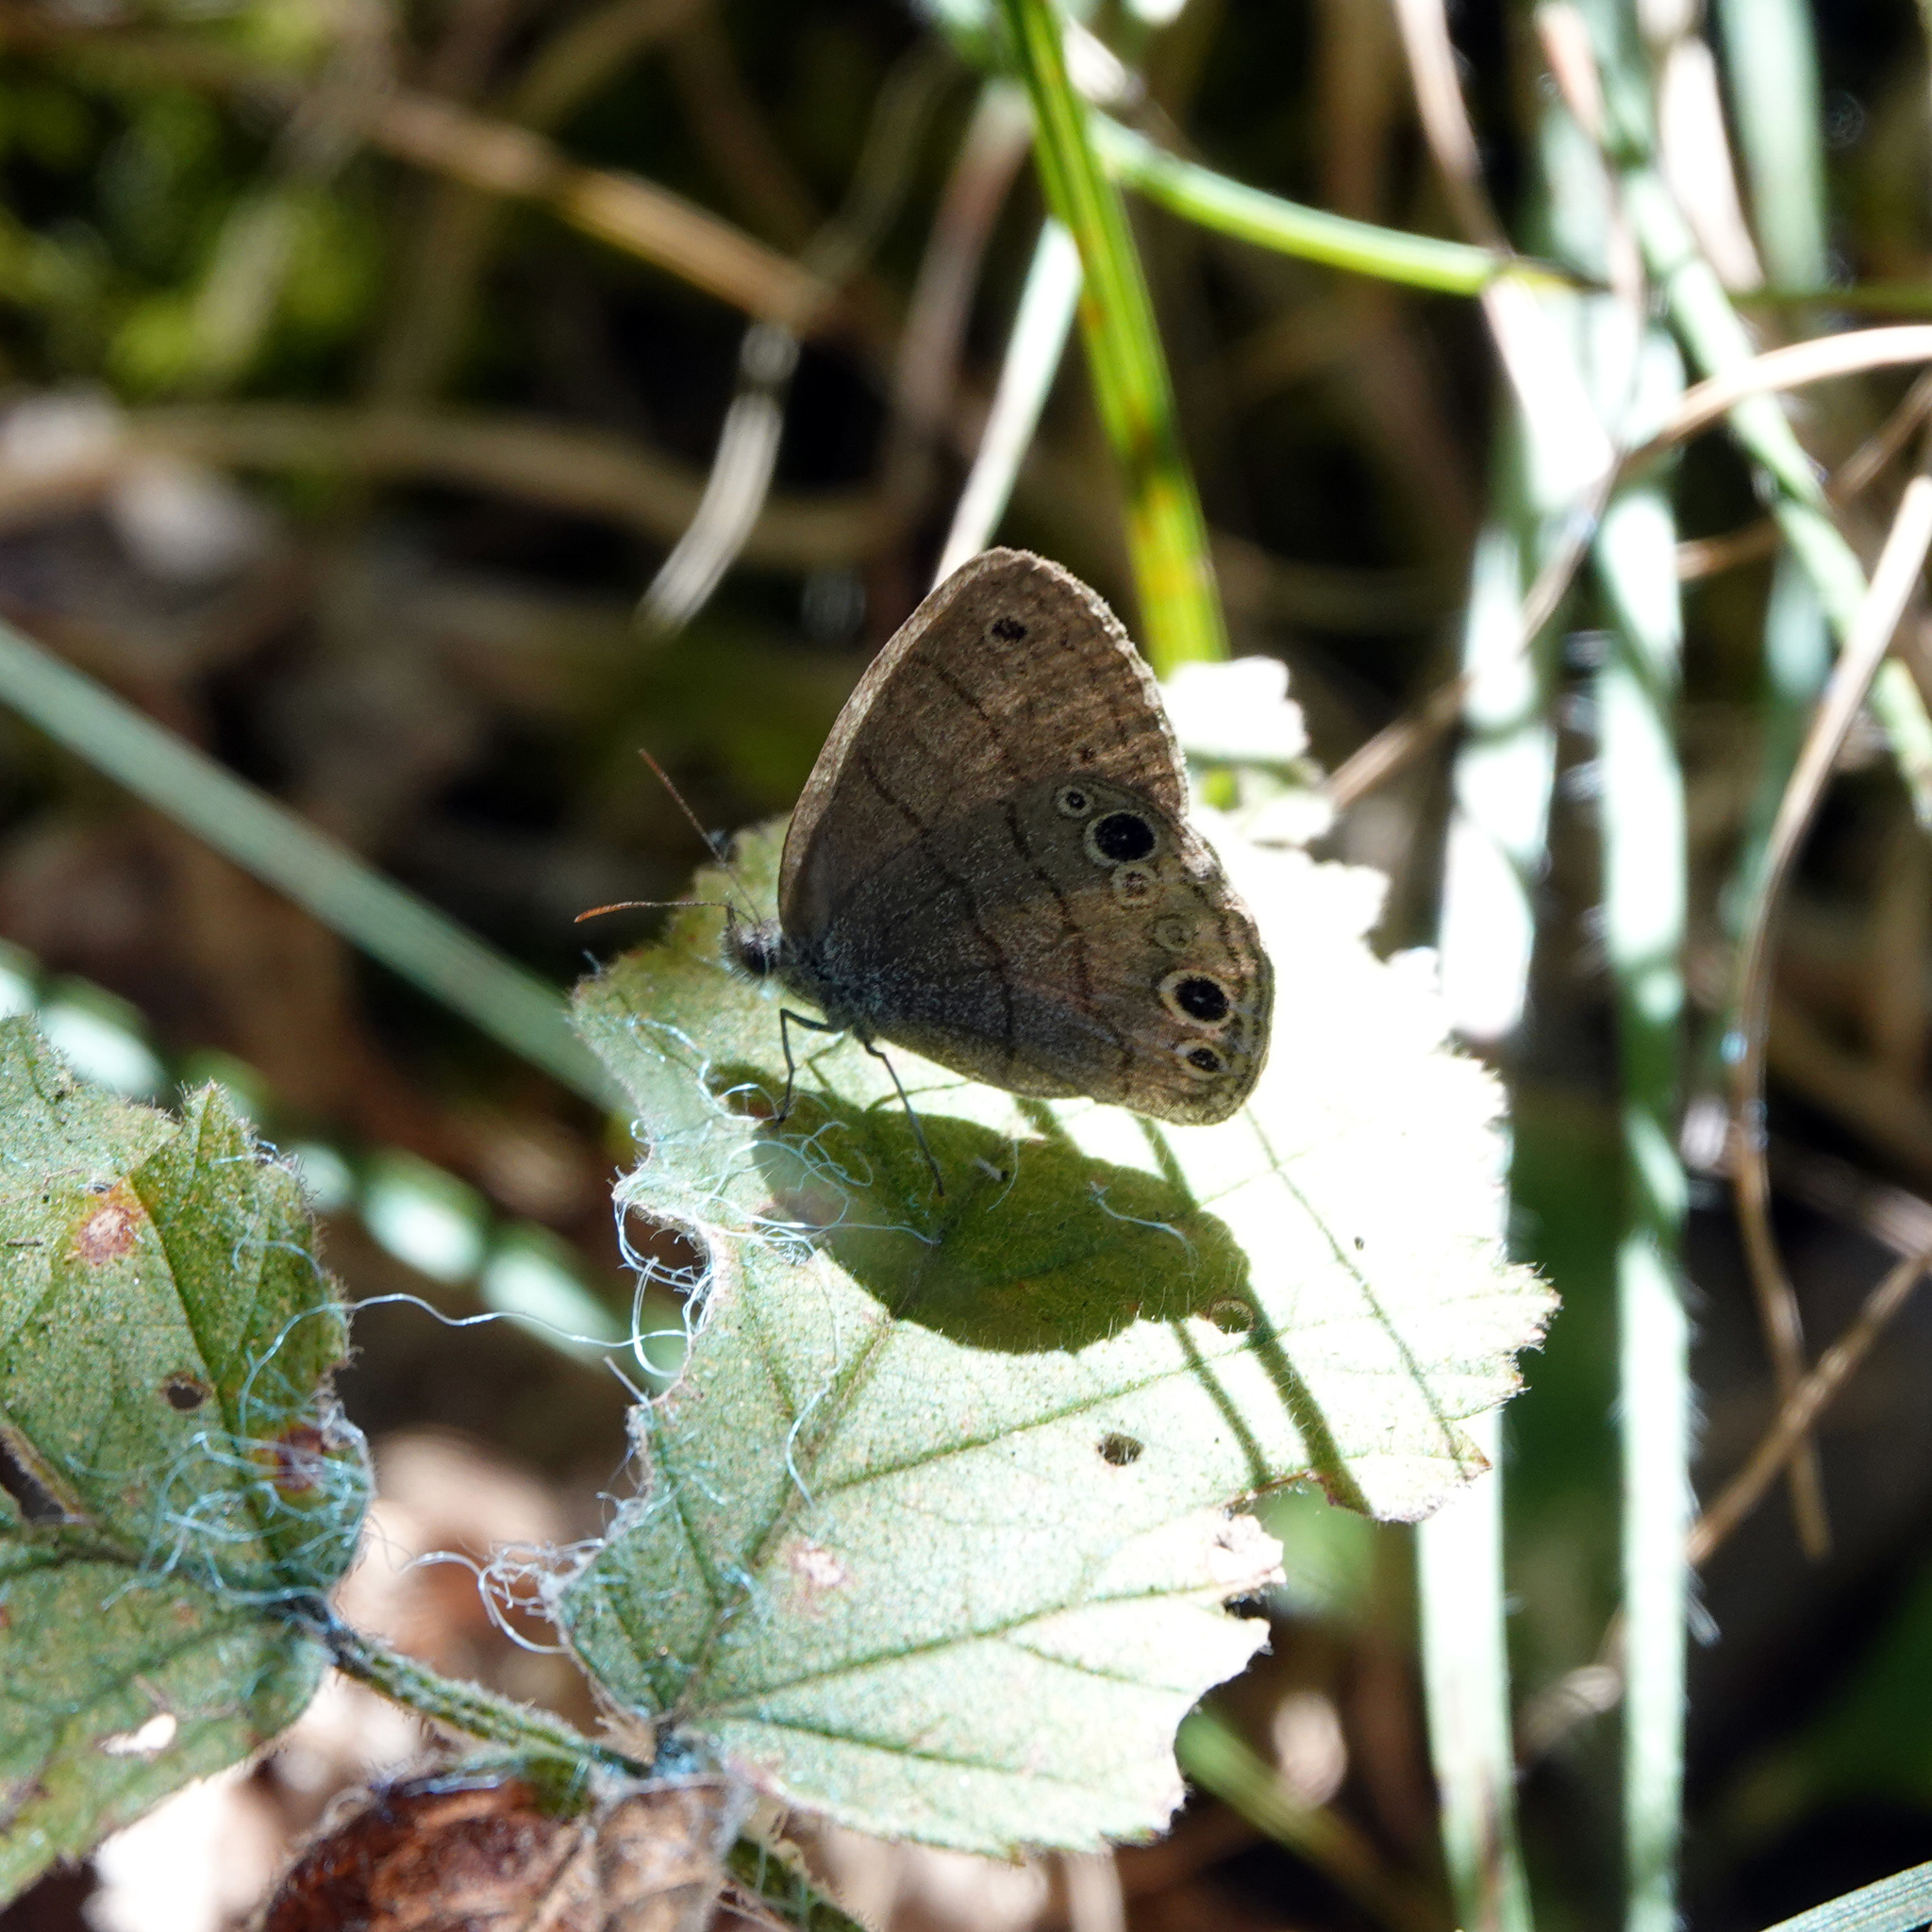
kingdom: Animalia
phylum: Arthropoda
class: Insecta
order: Lepidoptera
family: Nymphalidae
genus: Hermeuptychia
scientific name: Hermeuptychia hermes
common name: Hermes satyr
